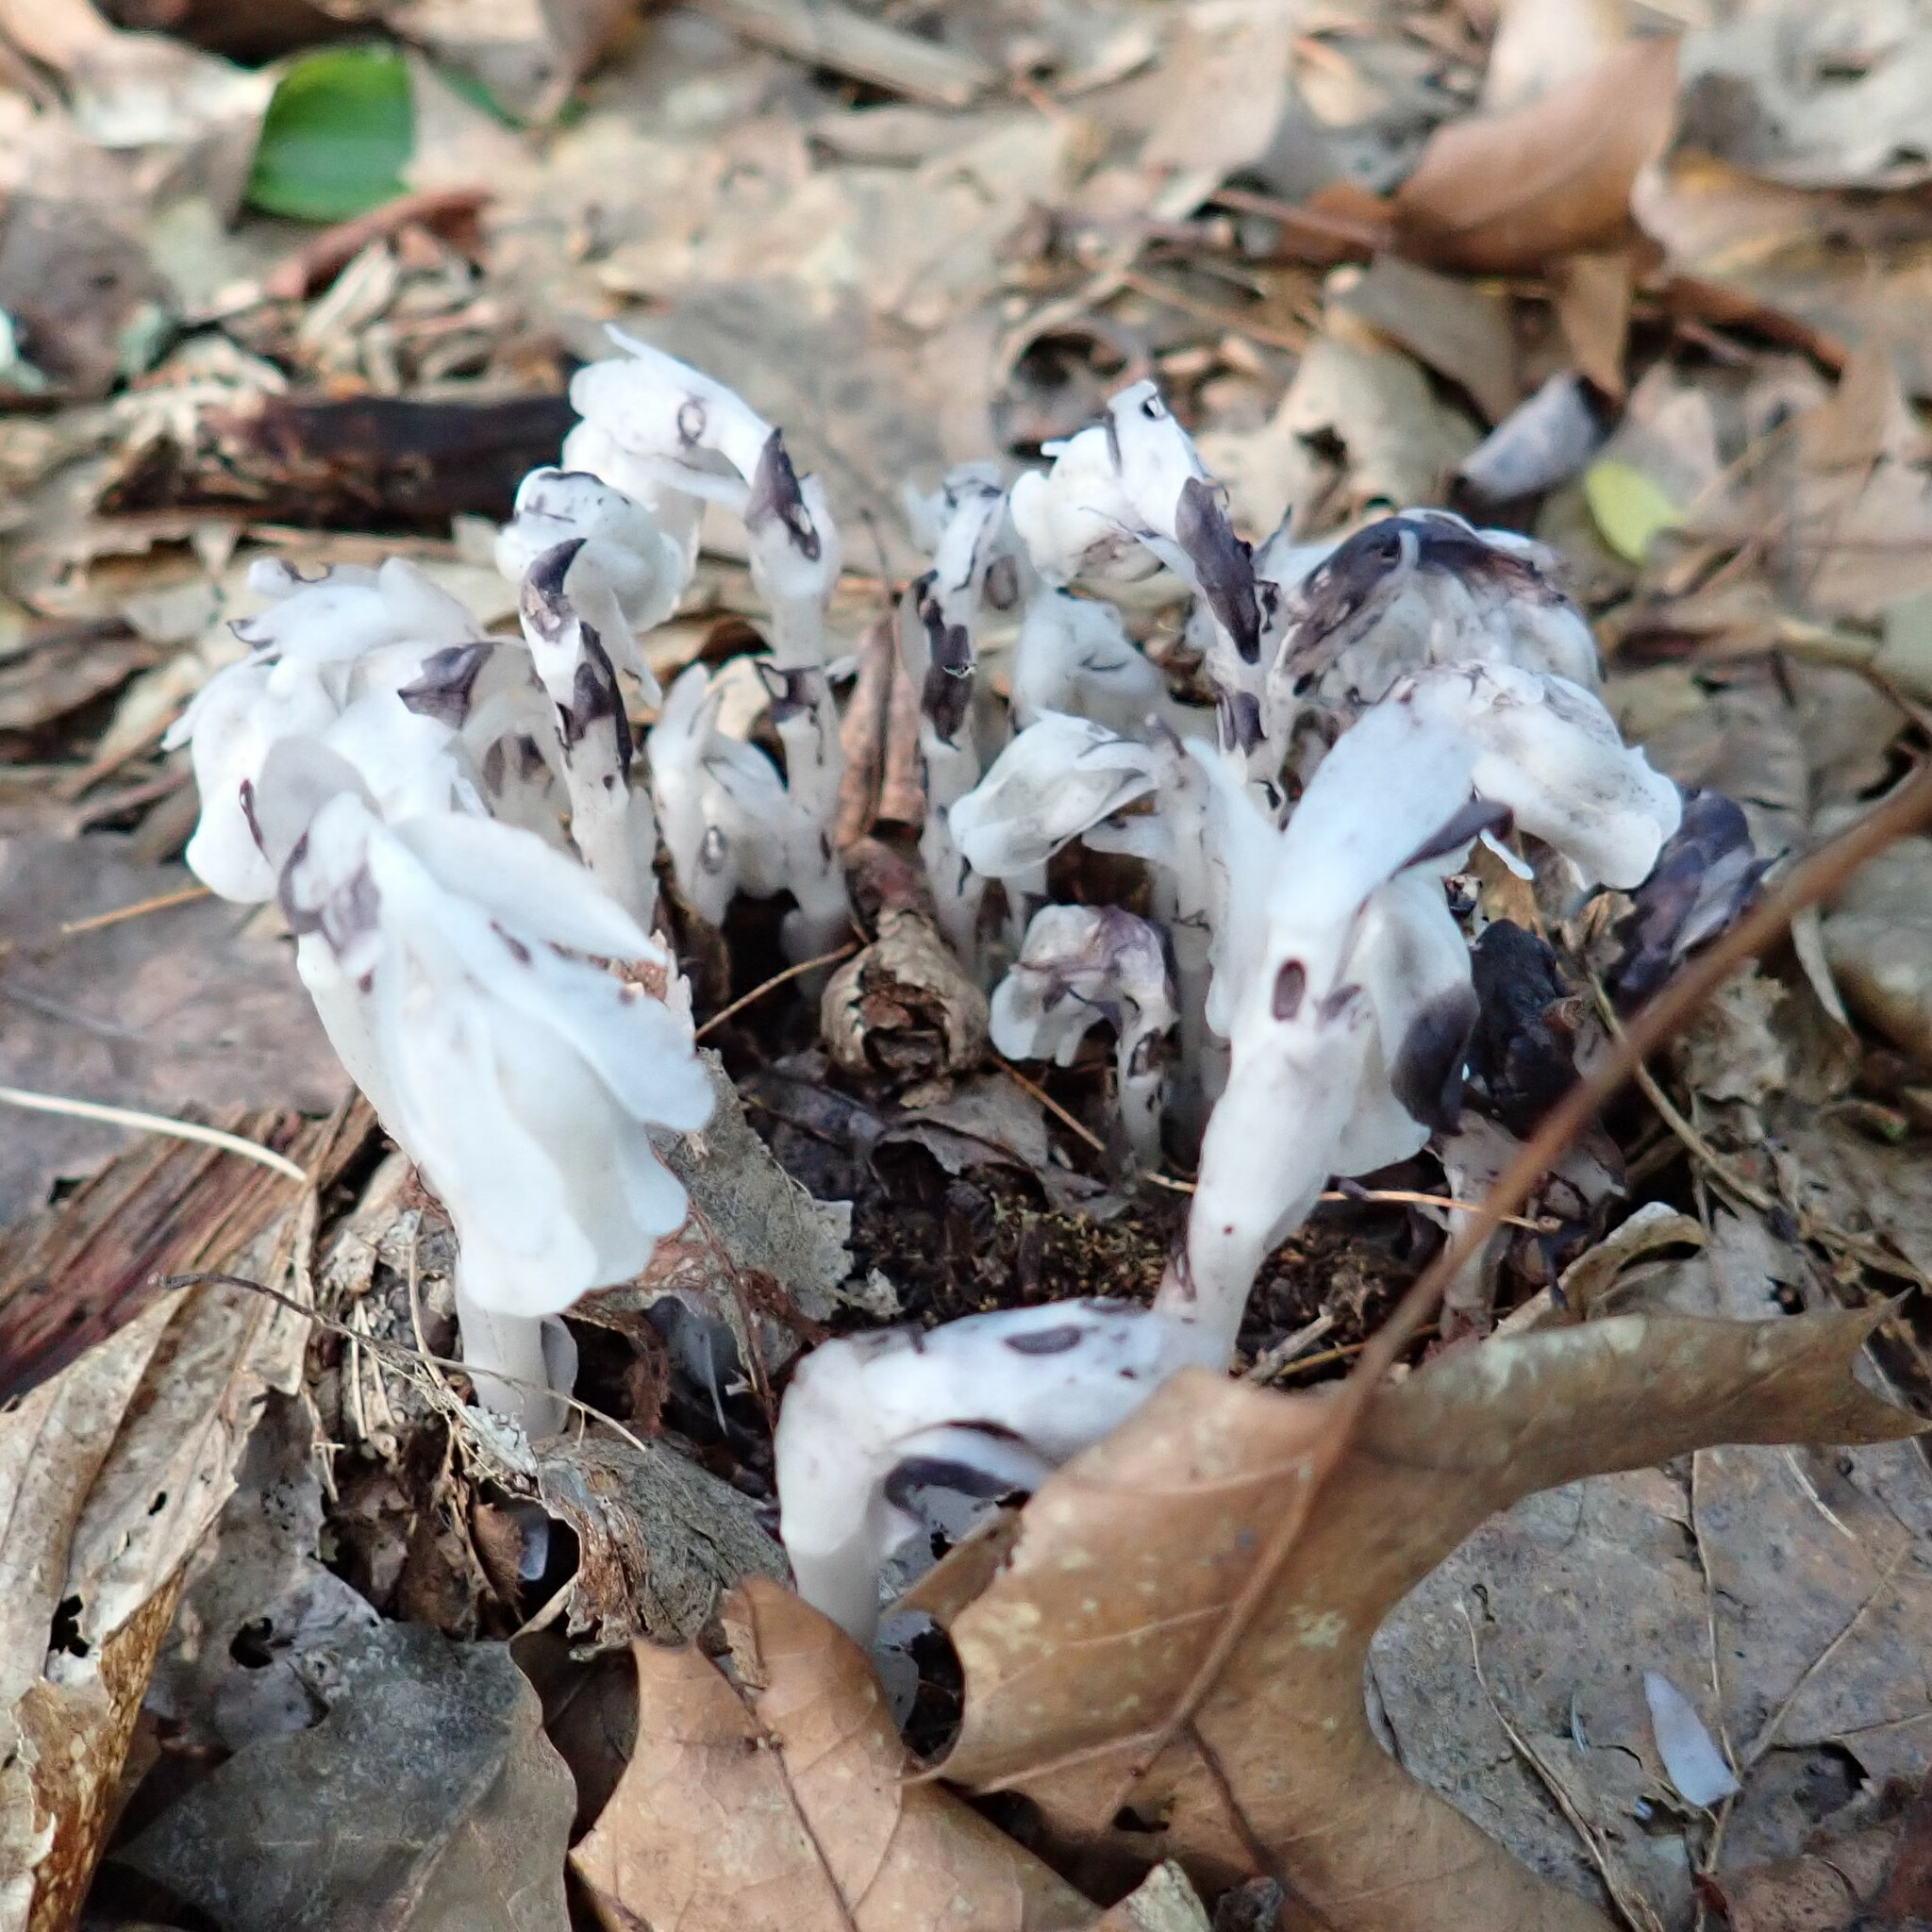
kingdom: Plantae
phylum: Tracheophyta
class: Magnoliopsida
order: Ericales
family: Ericaceae
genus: Monotropa
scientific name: Monotropa uniflora
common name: Convulsion root
